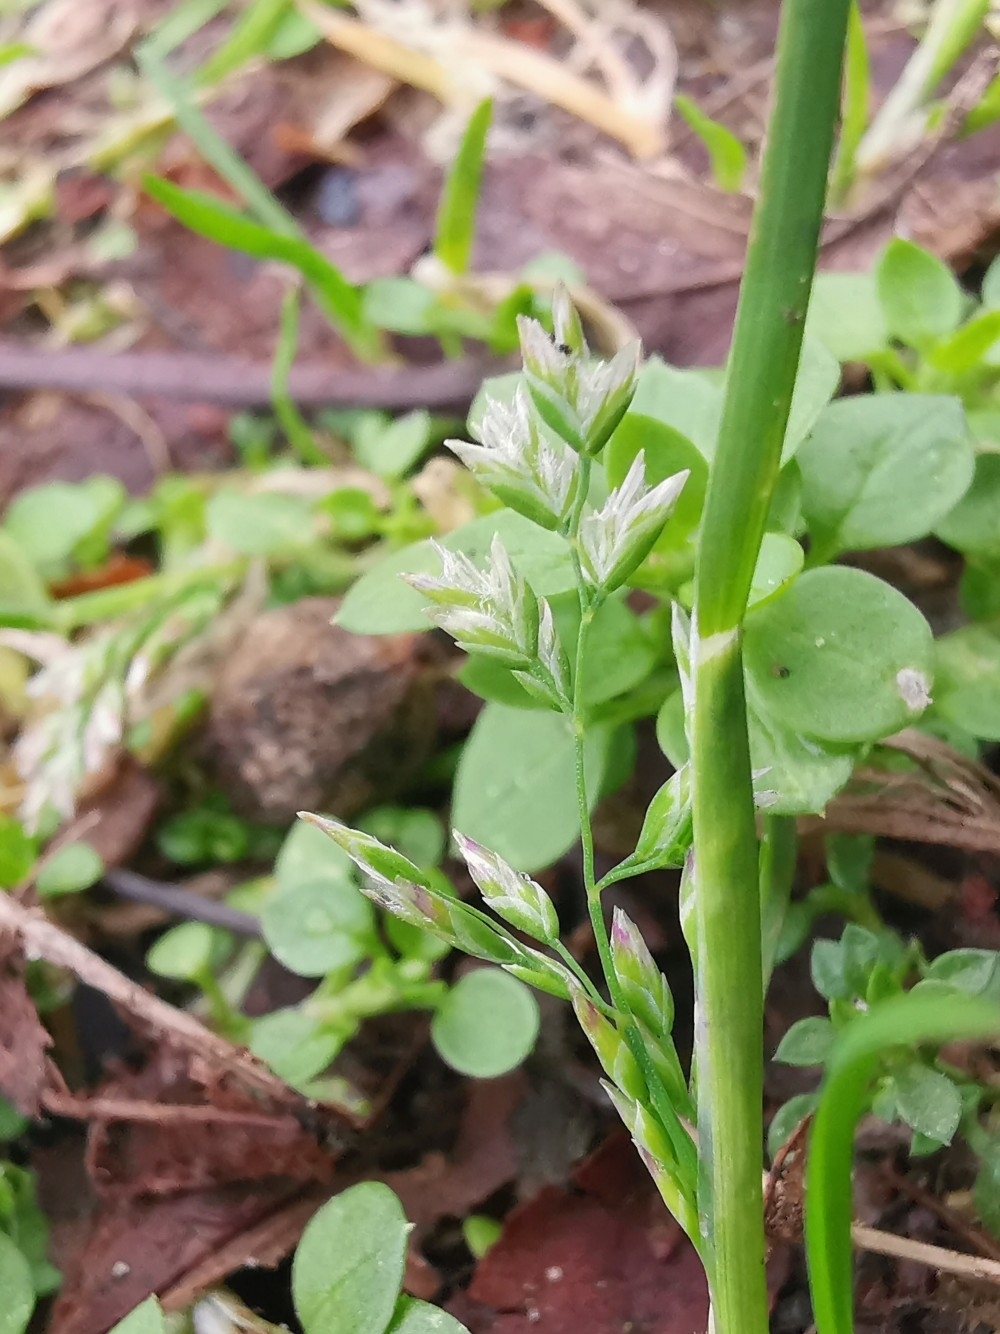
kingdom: Plantae
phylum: Tracheophyta
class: Liliopsida
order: Poales
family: Poaceae
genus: Poa
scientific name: Poa annua
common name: Annual bluegrass
